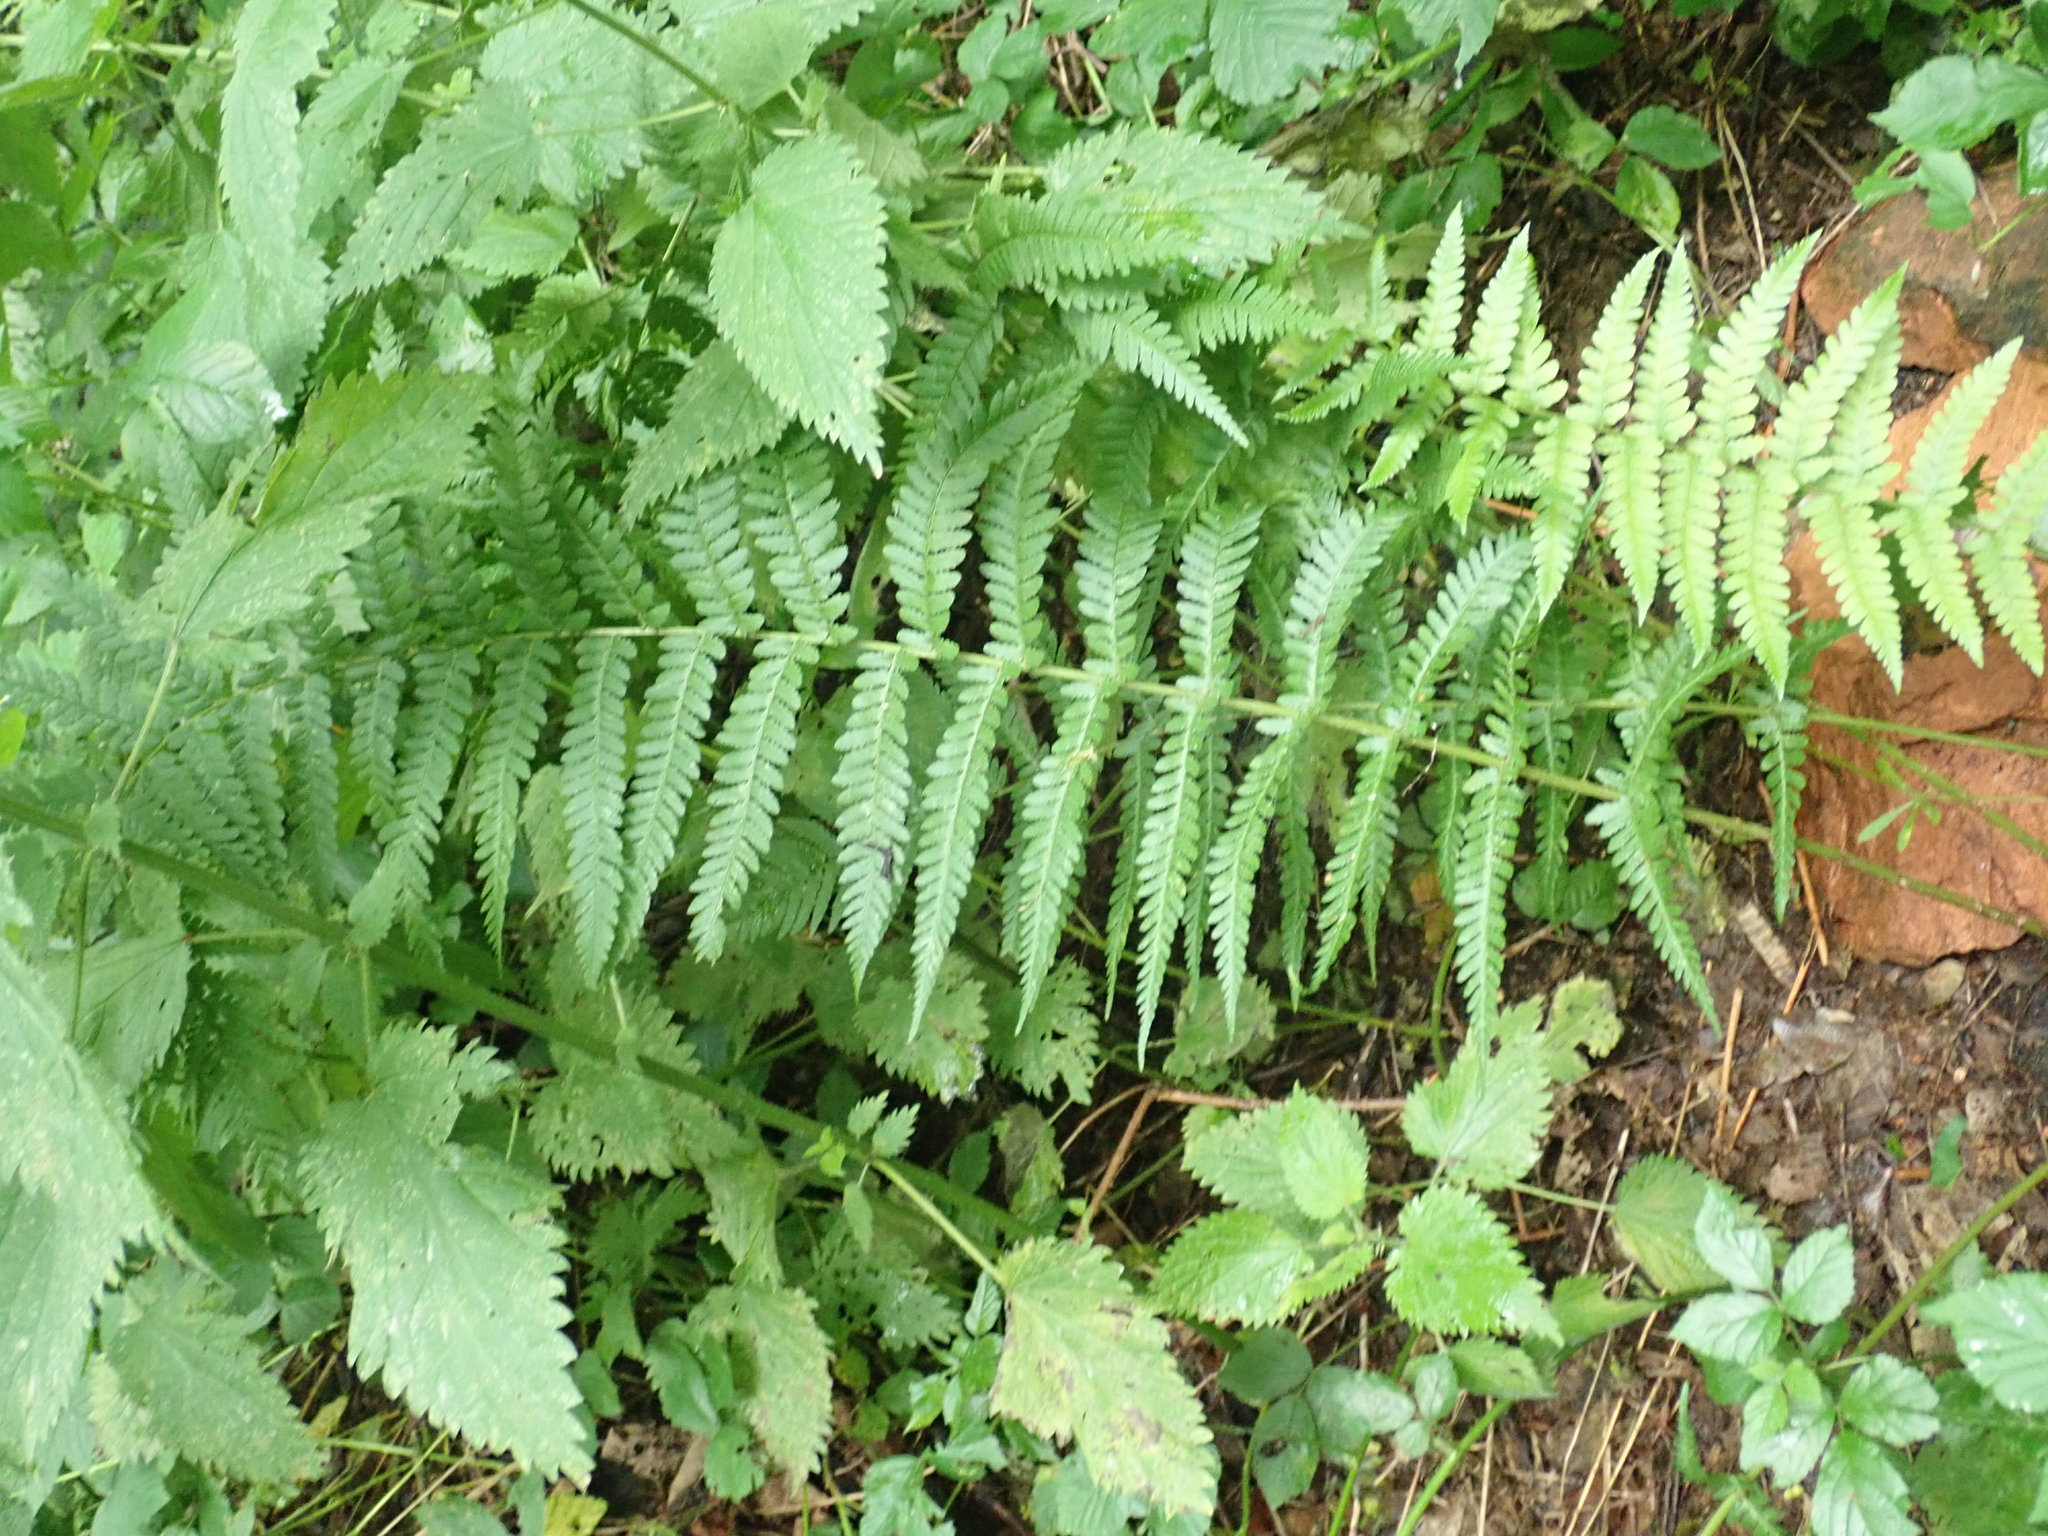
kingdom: Plantae
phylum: Tracheophyta
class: Polypodiopsida
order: Polypodiales
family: Dryopteridaceae
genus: Dryopteris
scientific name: Dryopteris filix-mas
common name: Male fern
